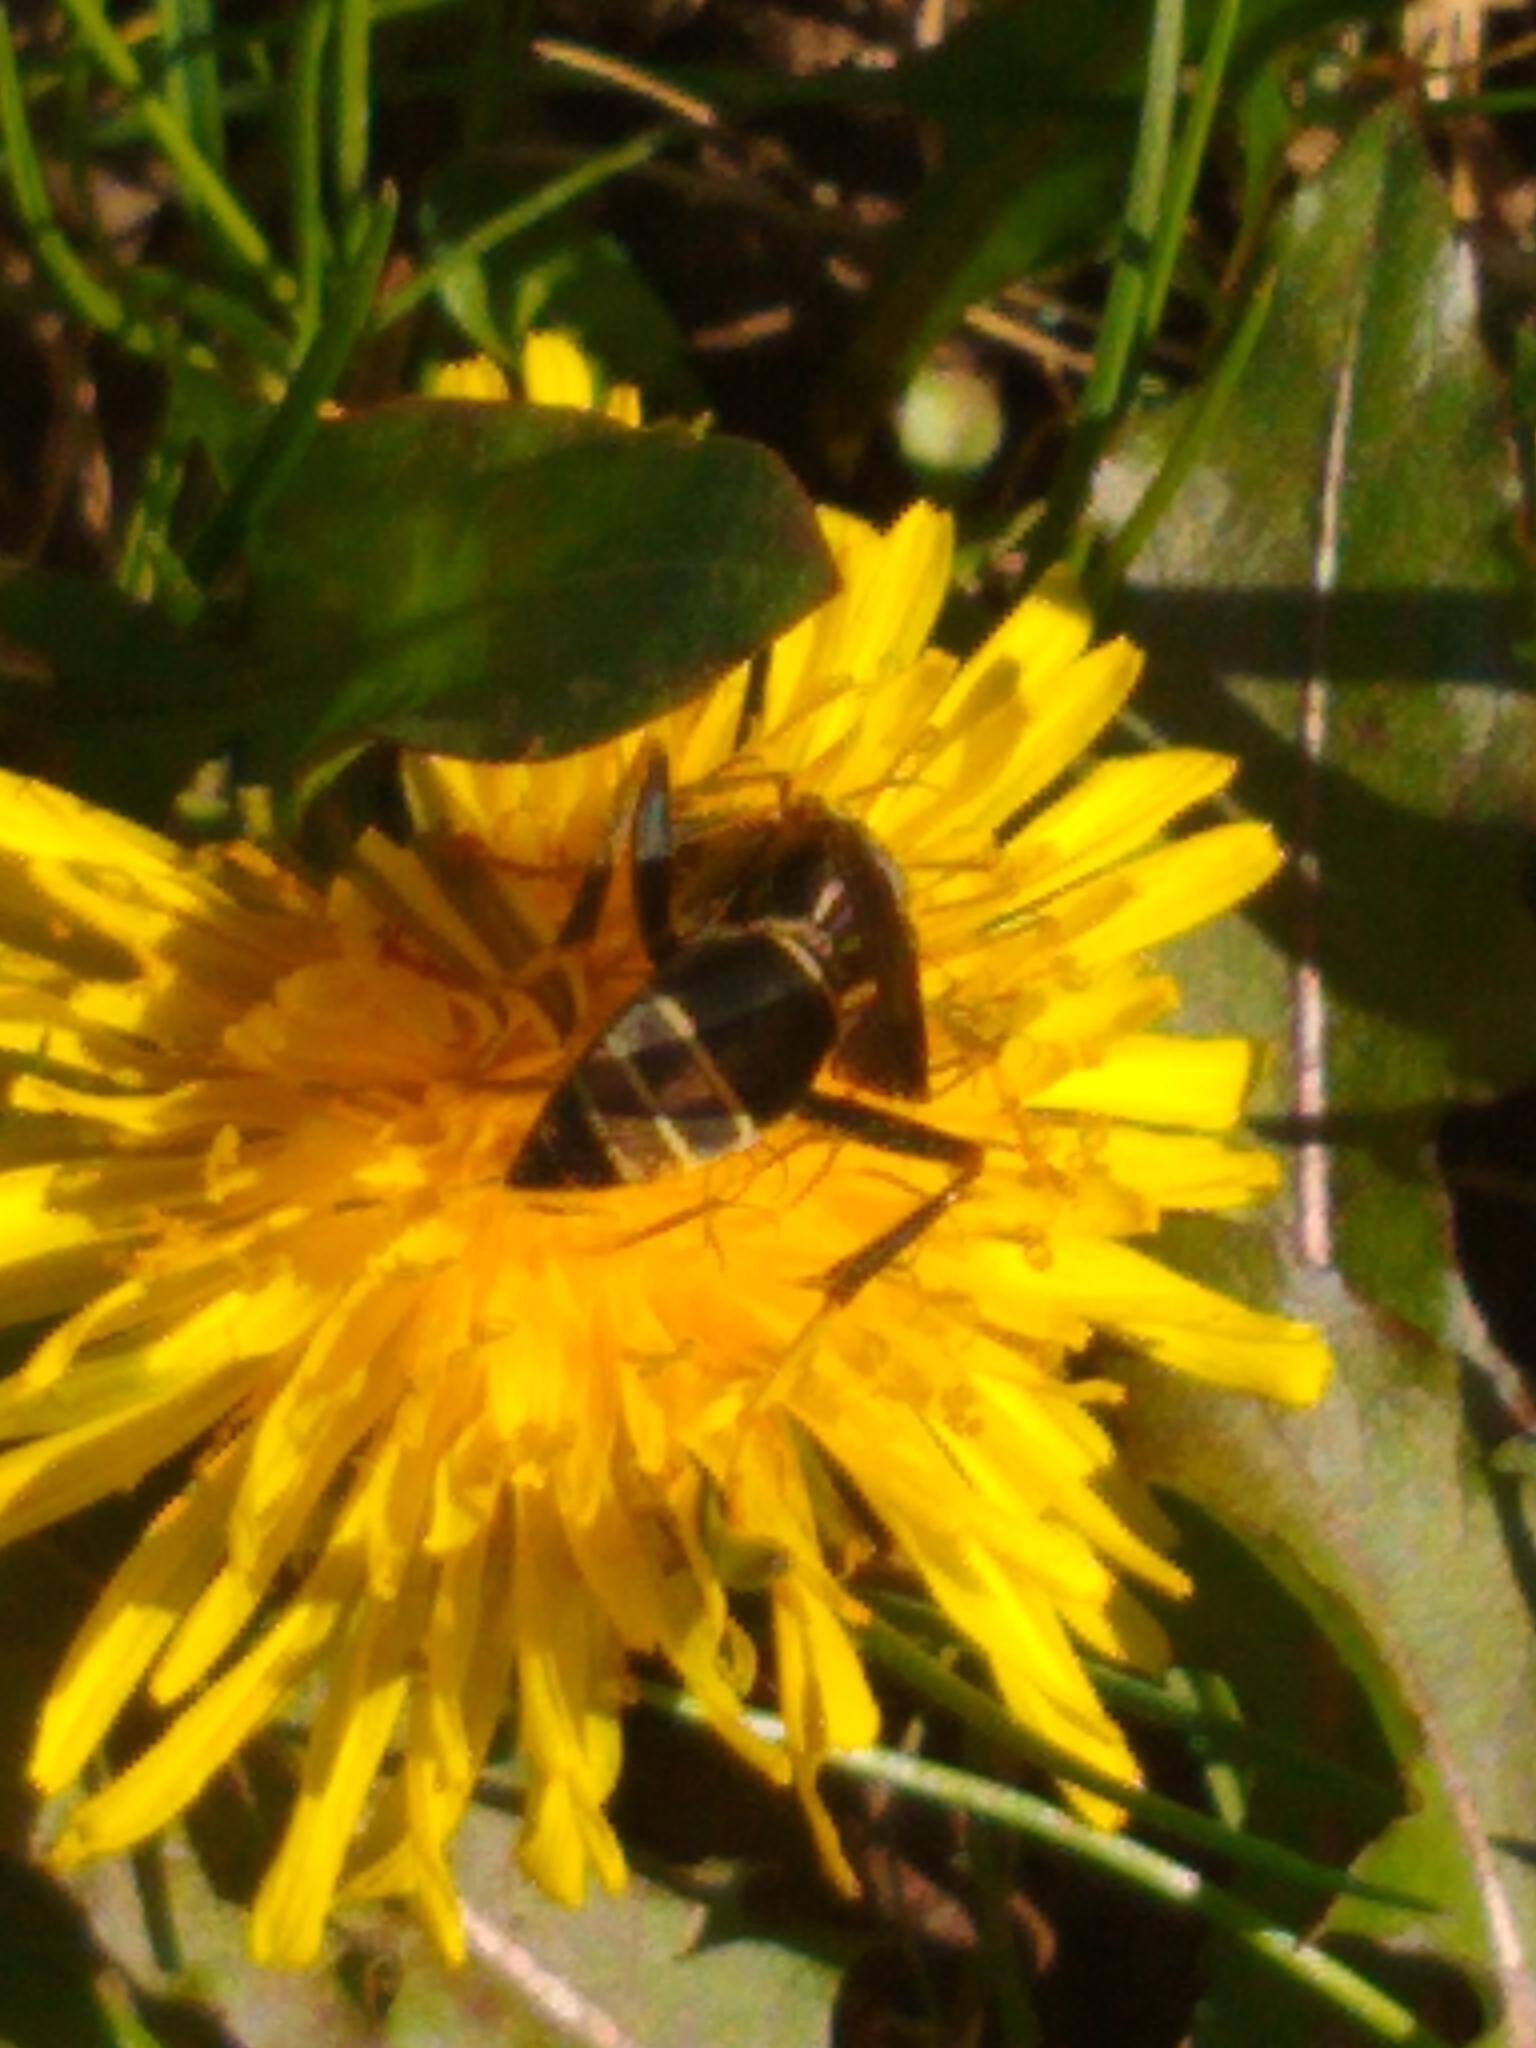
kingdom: Animalia
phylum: Arthropoda
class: Insecta
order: Hymenoptera
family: Eumenidae
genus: Polistes
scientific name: Polistes fuscatus
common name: Dark paper wasp
